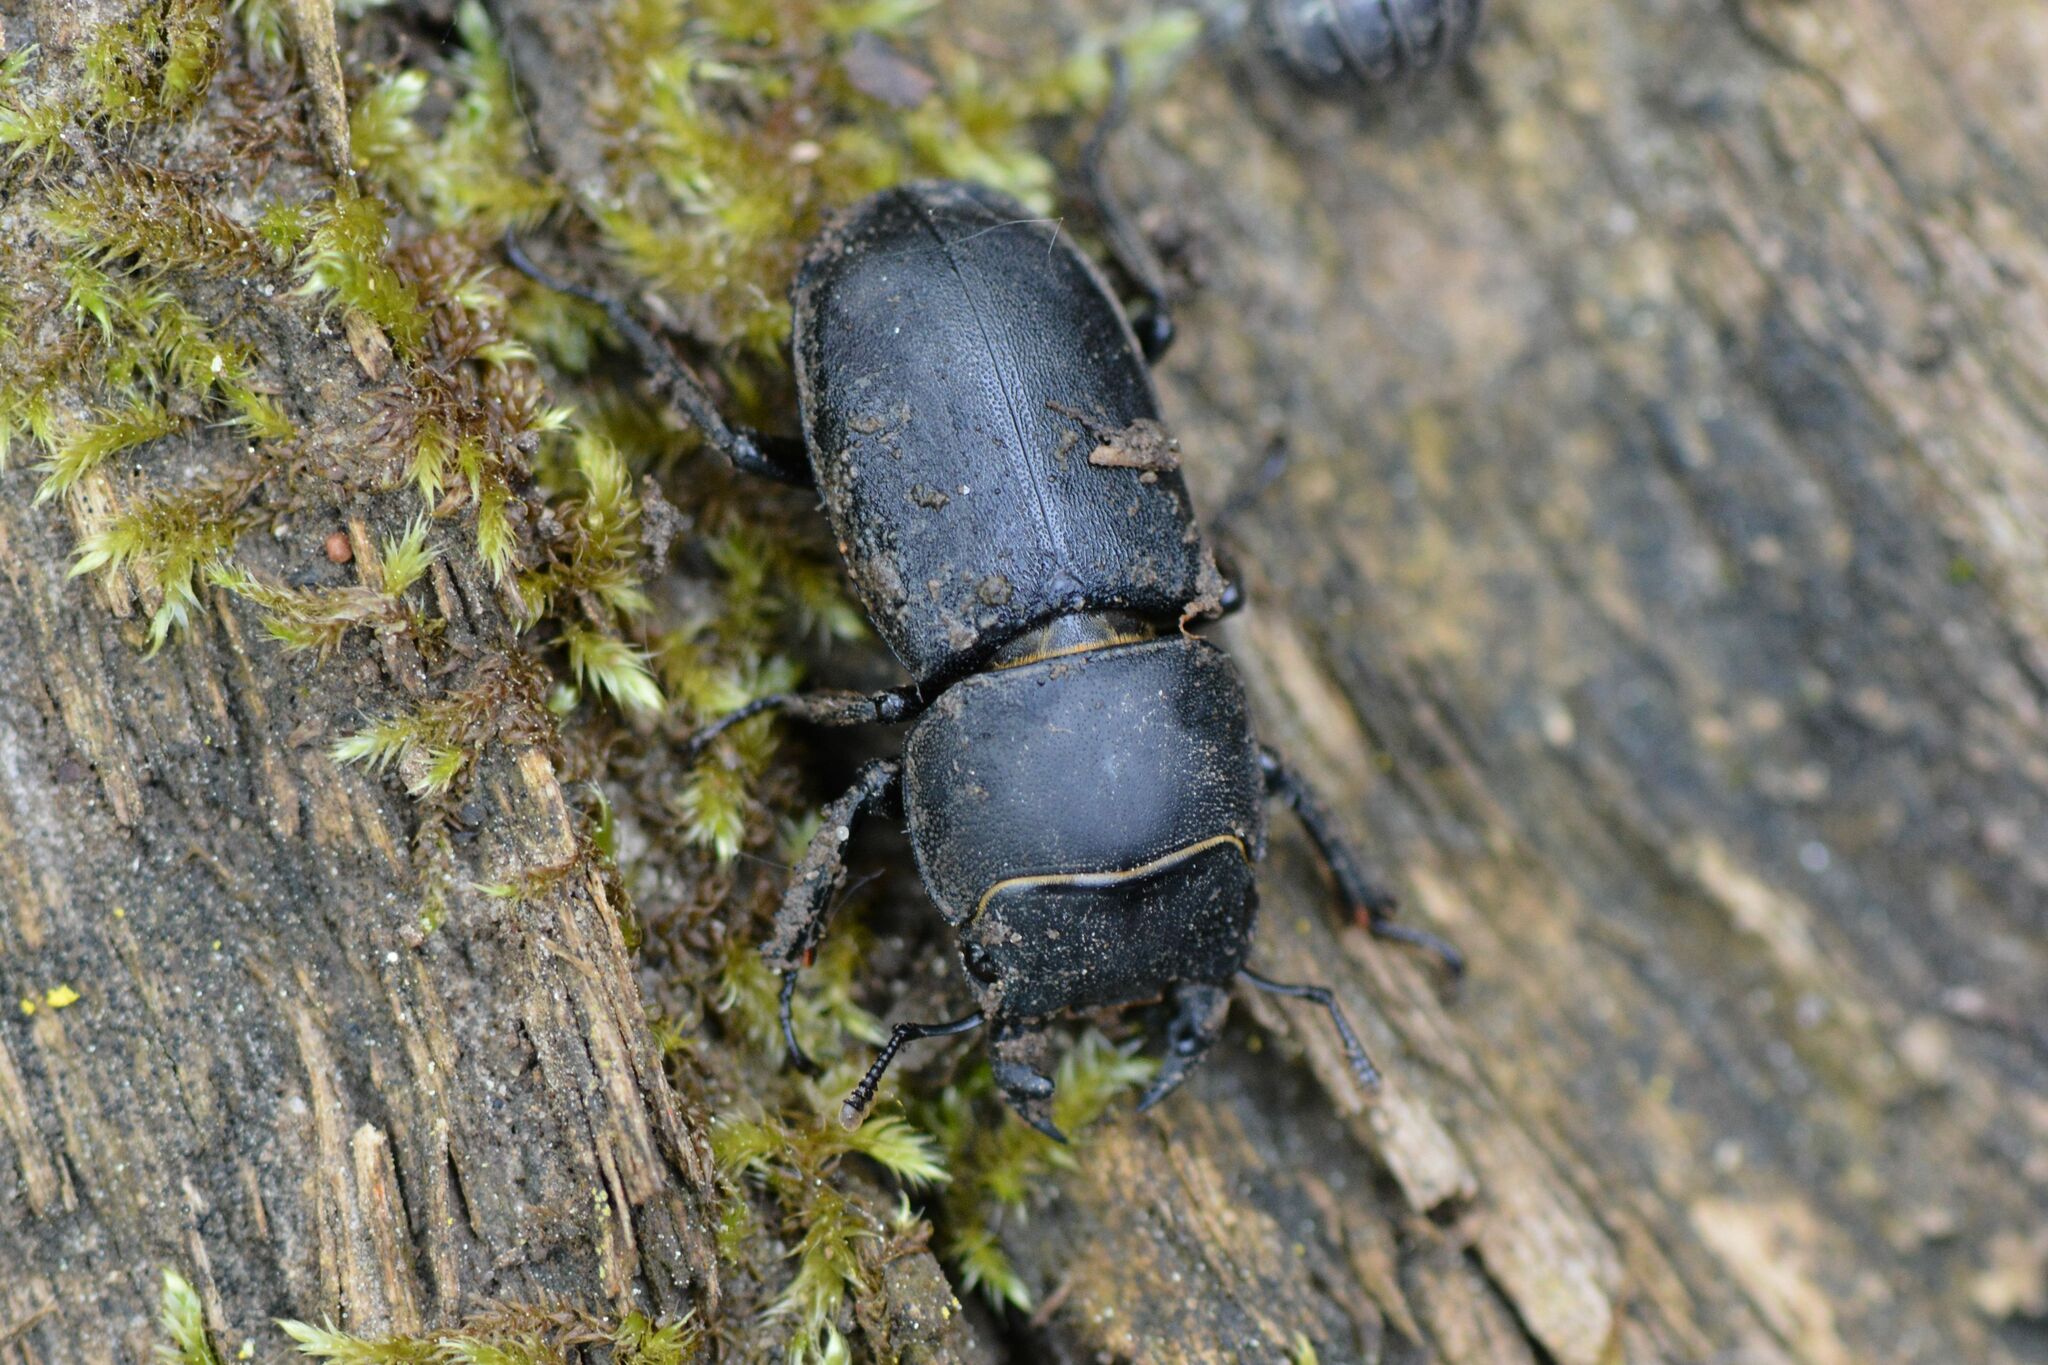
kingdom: Animalia
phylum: Arthropoda
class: Insecta
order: Coleoptera
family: Lucanidae
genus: Dorcus
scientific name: Dorcus parallelipipedus
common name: Lesser stag beetle
